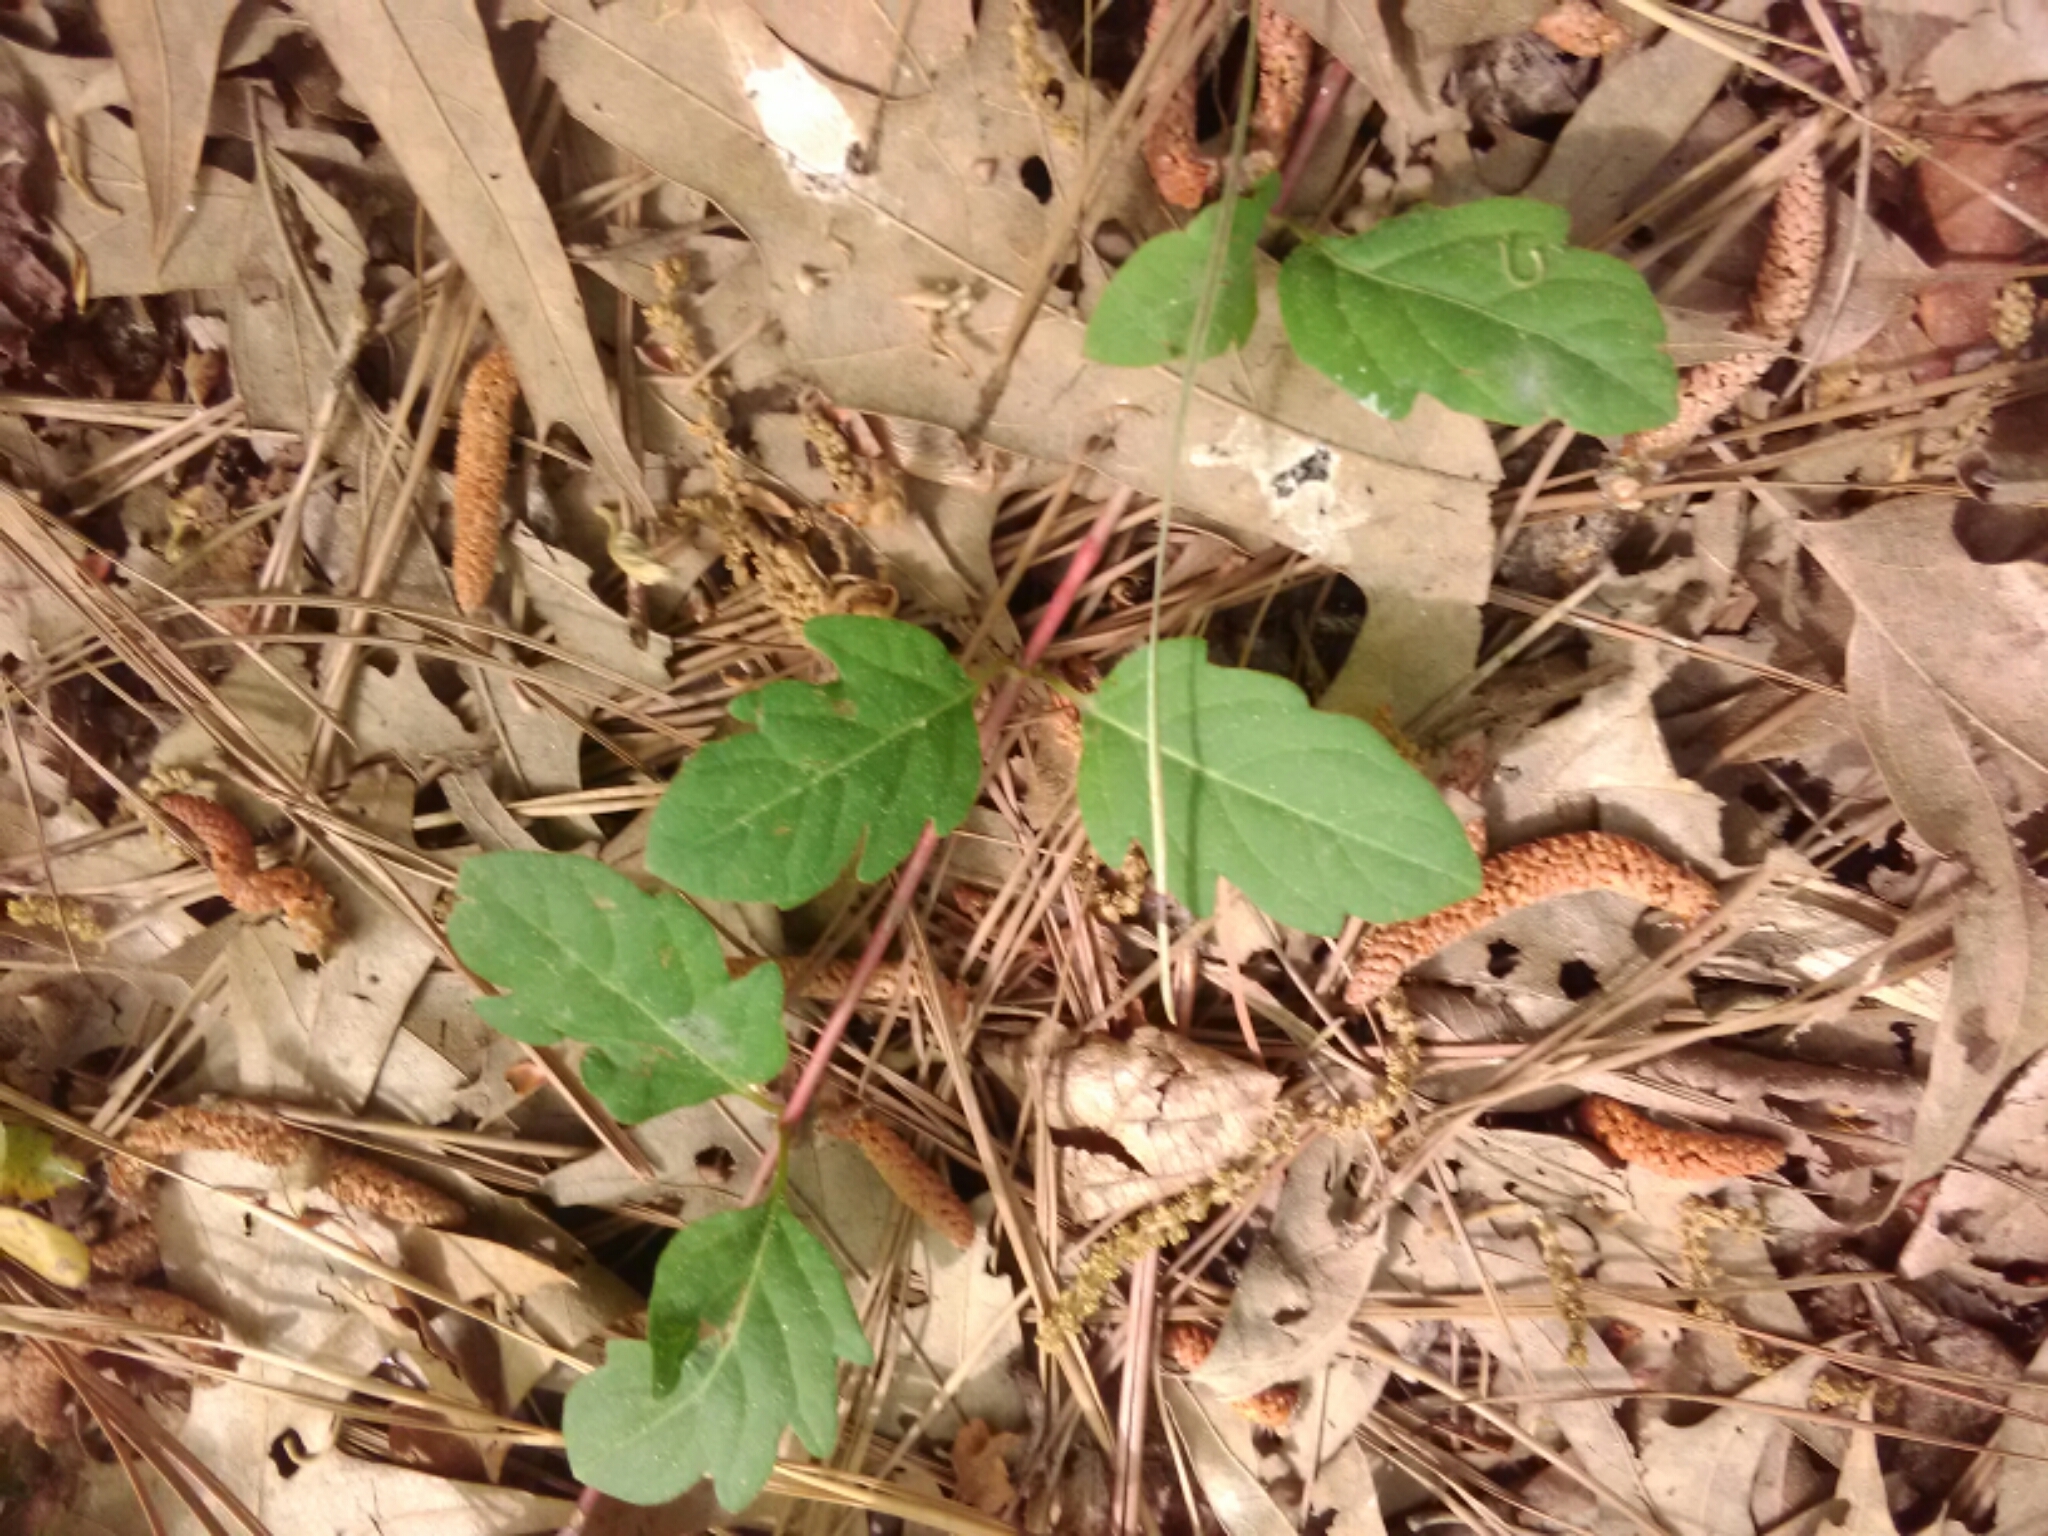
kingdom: Plantae
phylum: Tracheophyta
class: Magnoliopsida
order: Dipsacales
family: Caprifoliaceae
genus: Lonicera
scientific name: Lonicera japonica
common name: Japanese honeysuckle
